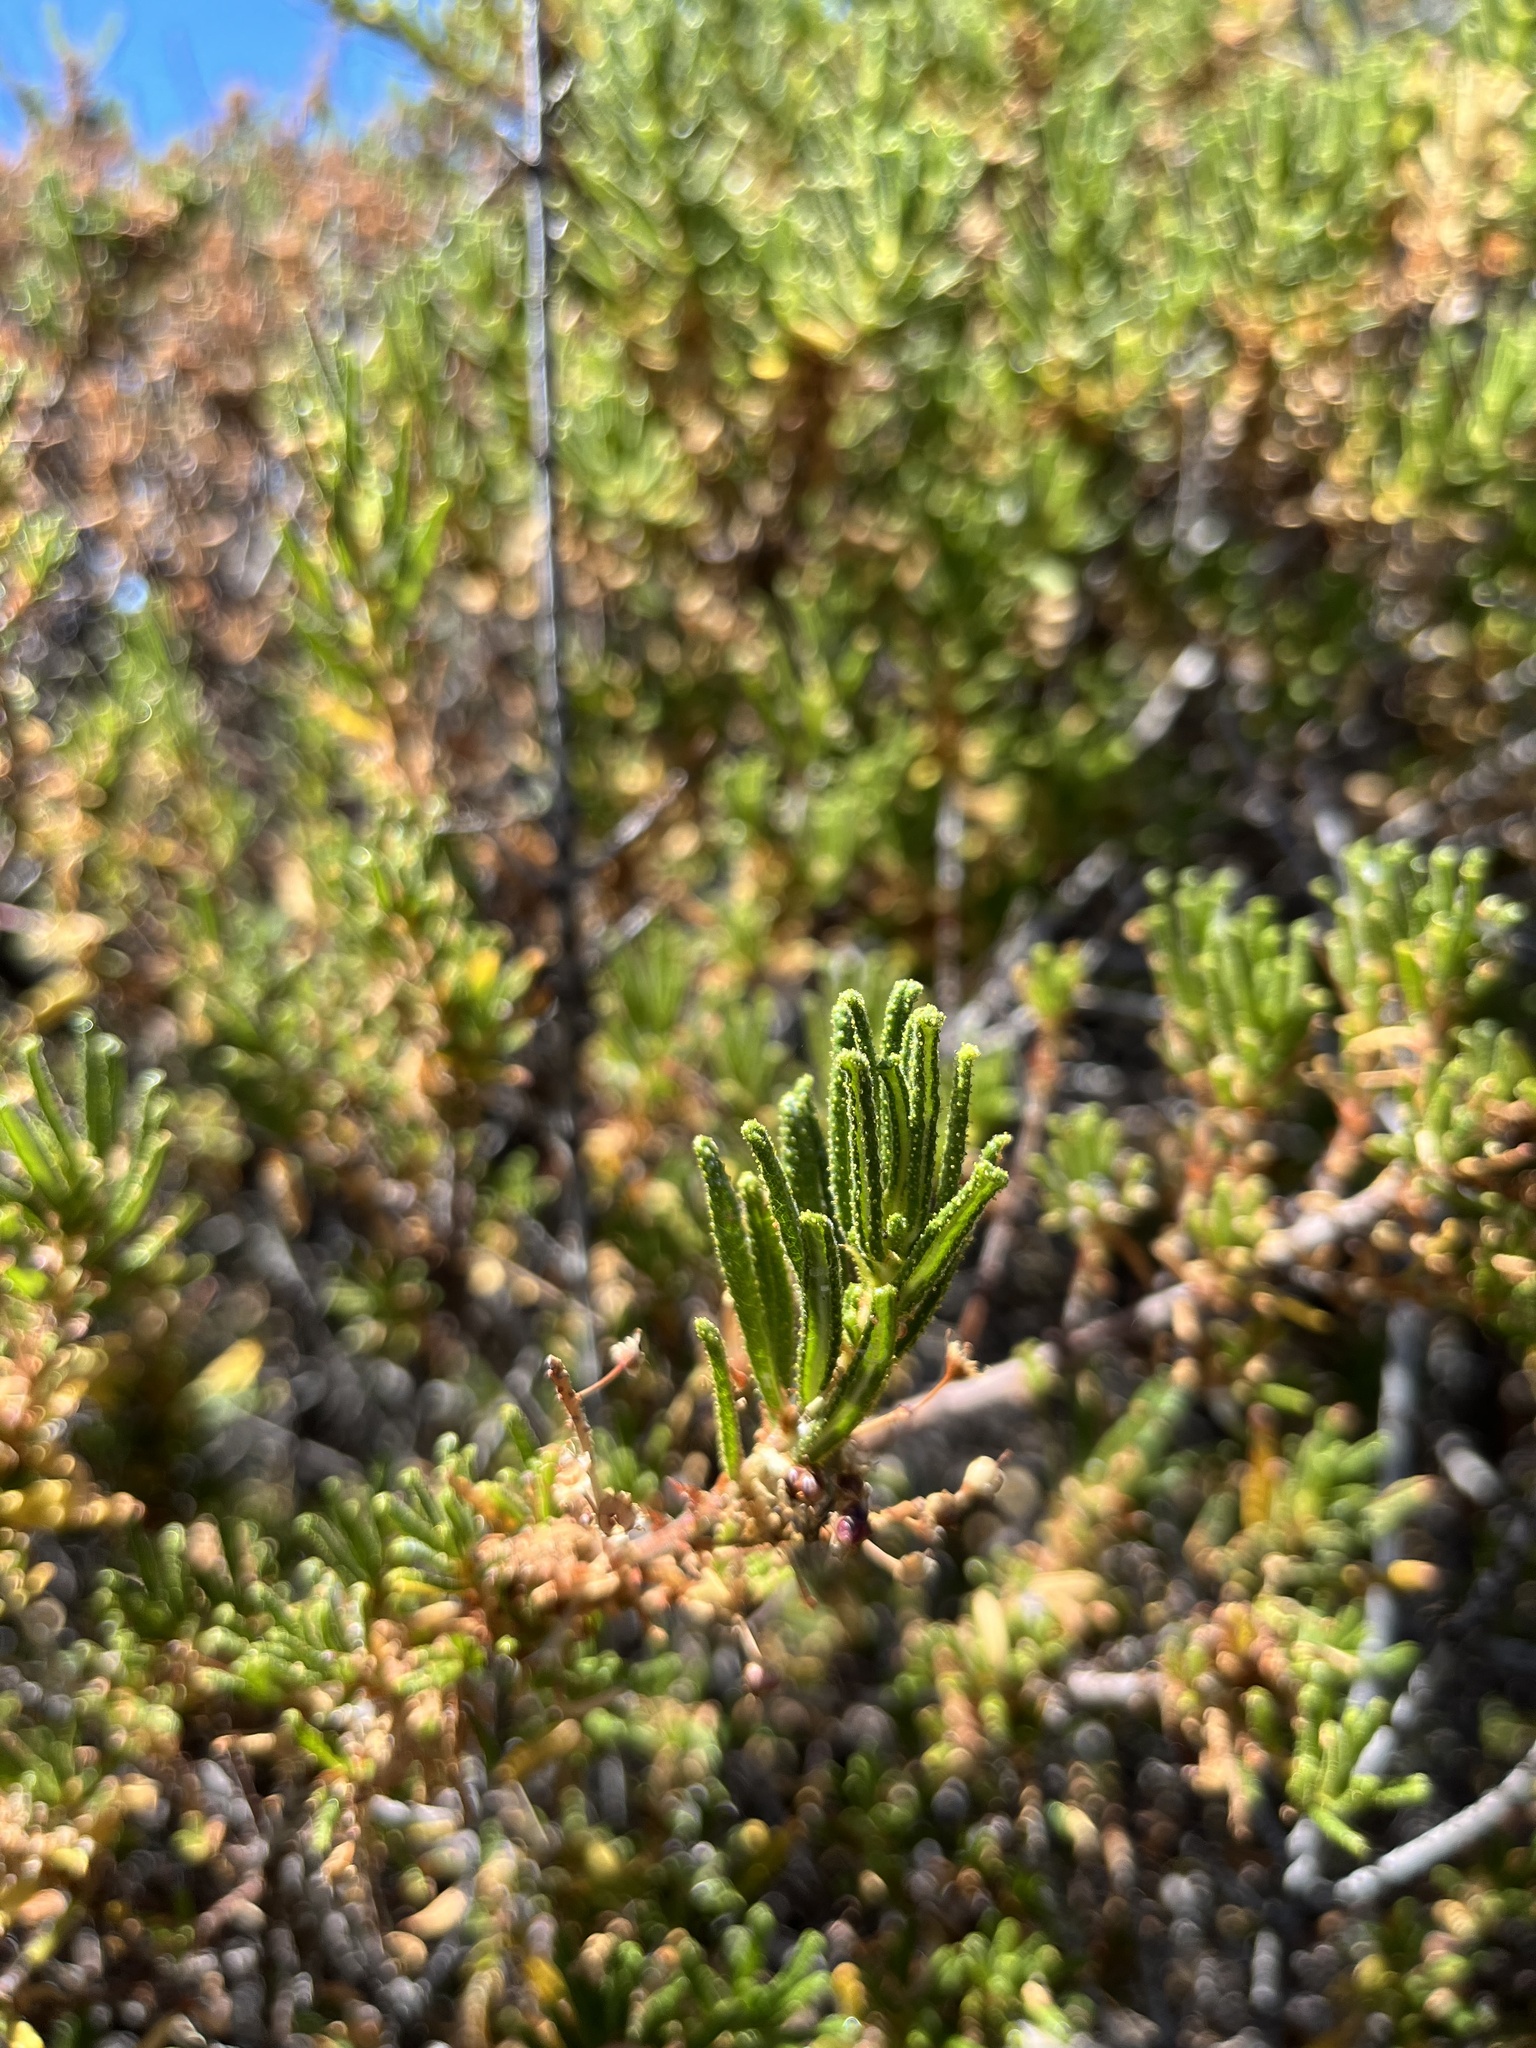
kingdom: Plantae
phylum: Tracheophyta
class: Magnoliopsida
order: Rosales
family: Rhamnaceae
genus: Ceanothus
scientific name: Ceanothus papillosus
